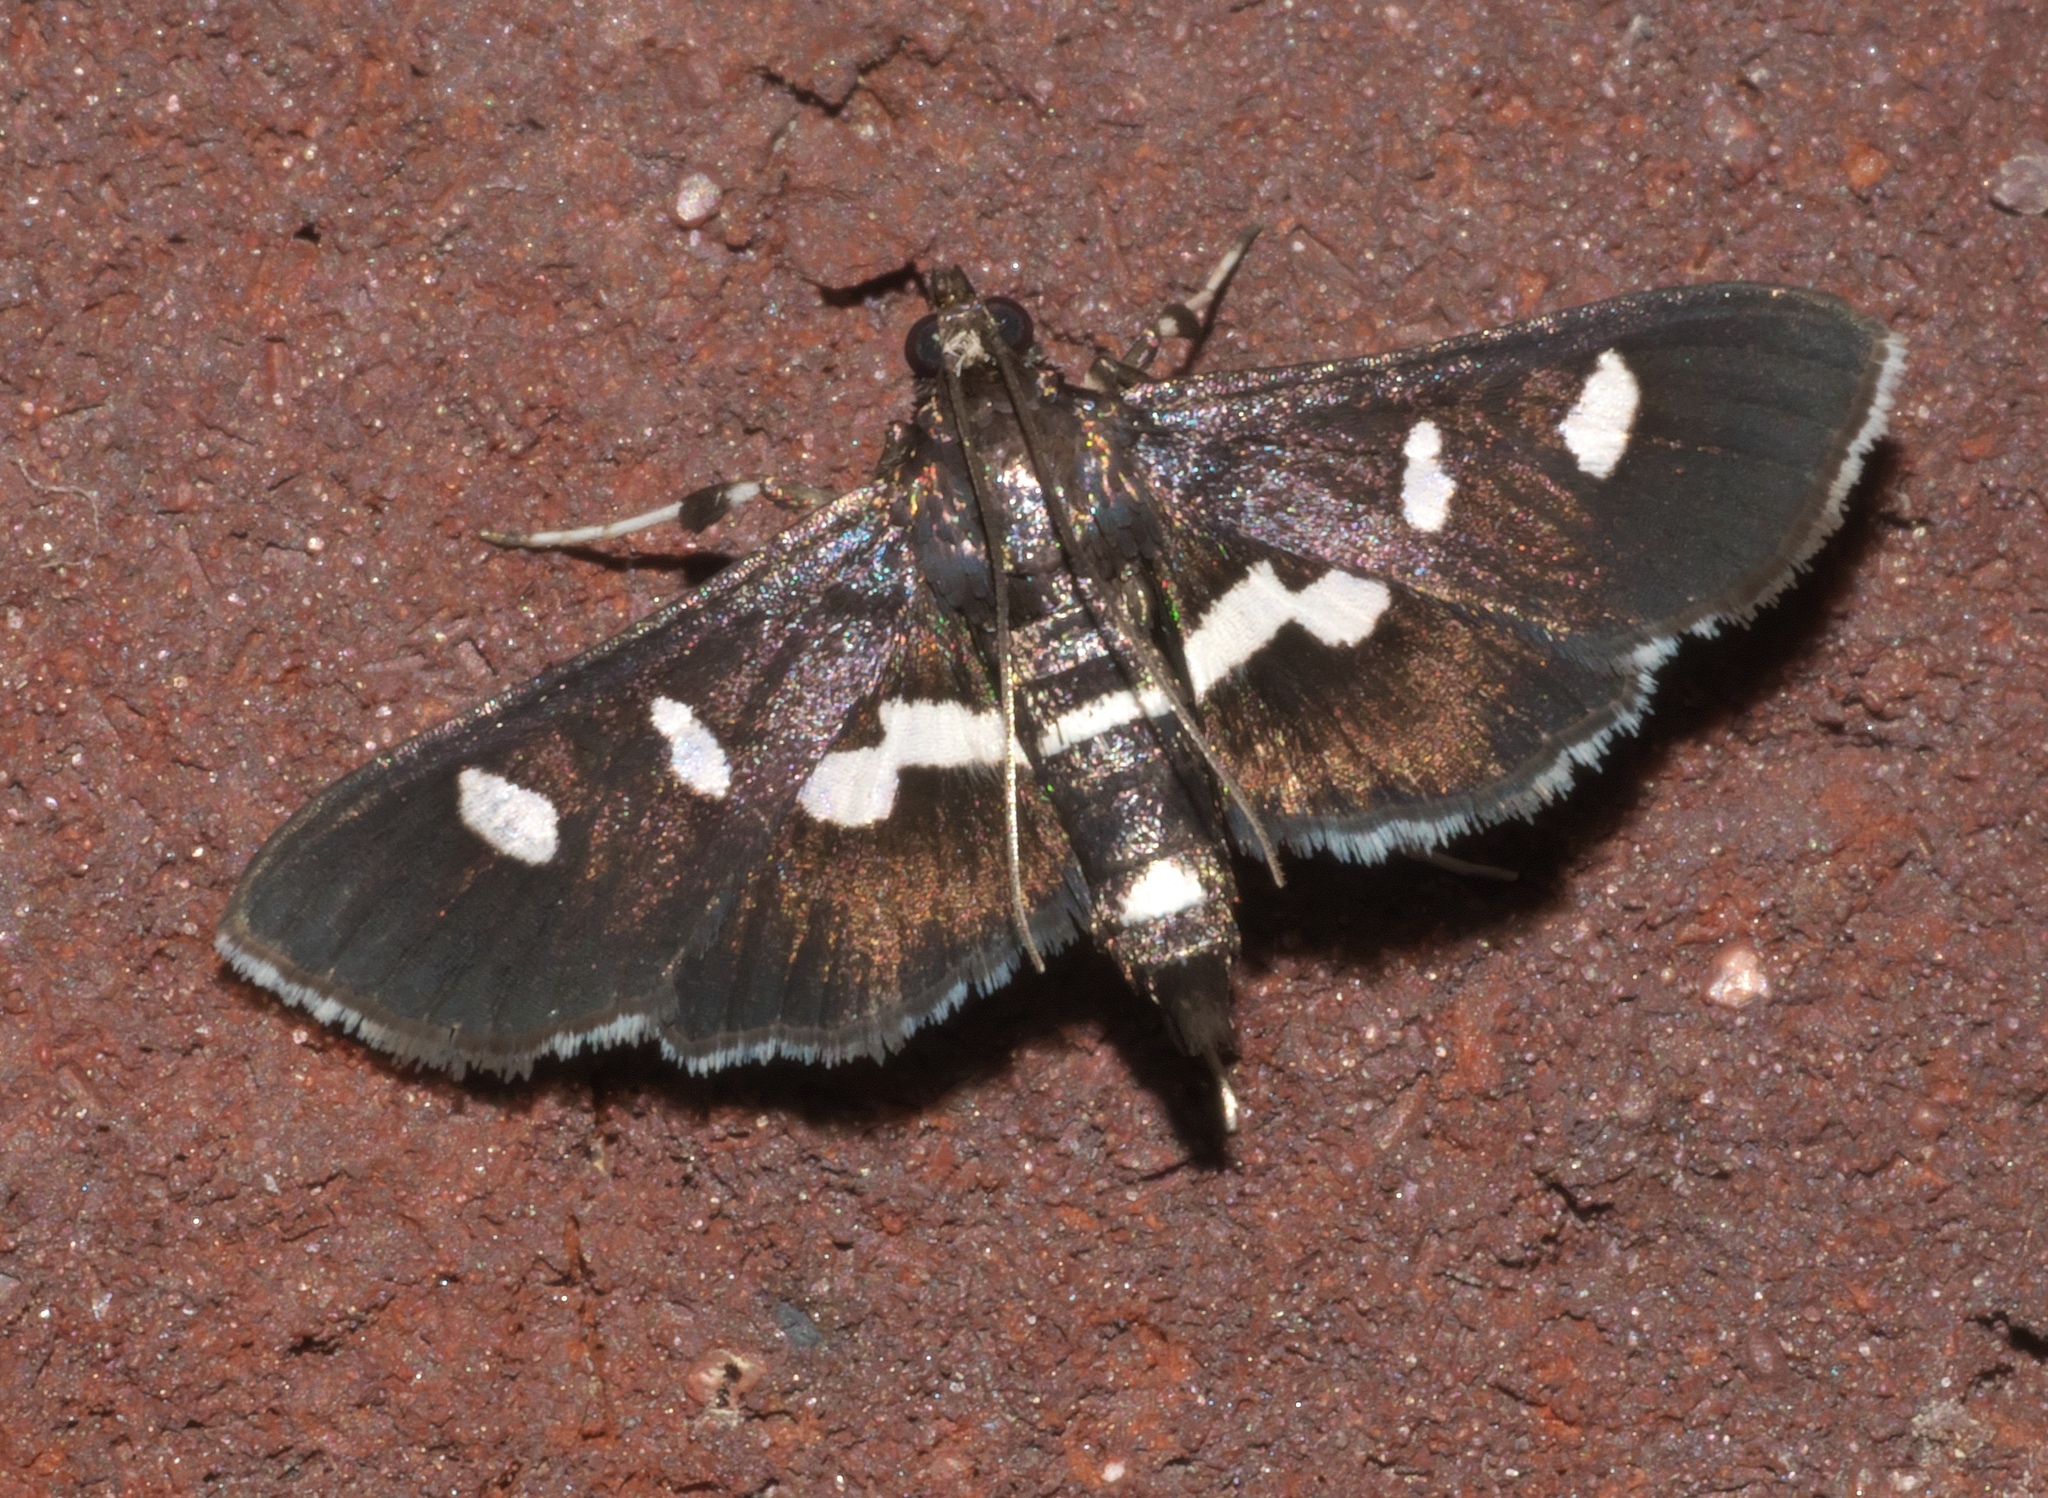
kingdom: Animalia
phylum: Arthropoda
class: Insecta
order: Lepidoptera
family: Crambidae
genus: Desmia
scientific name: Desmia
